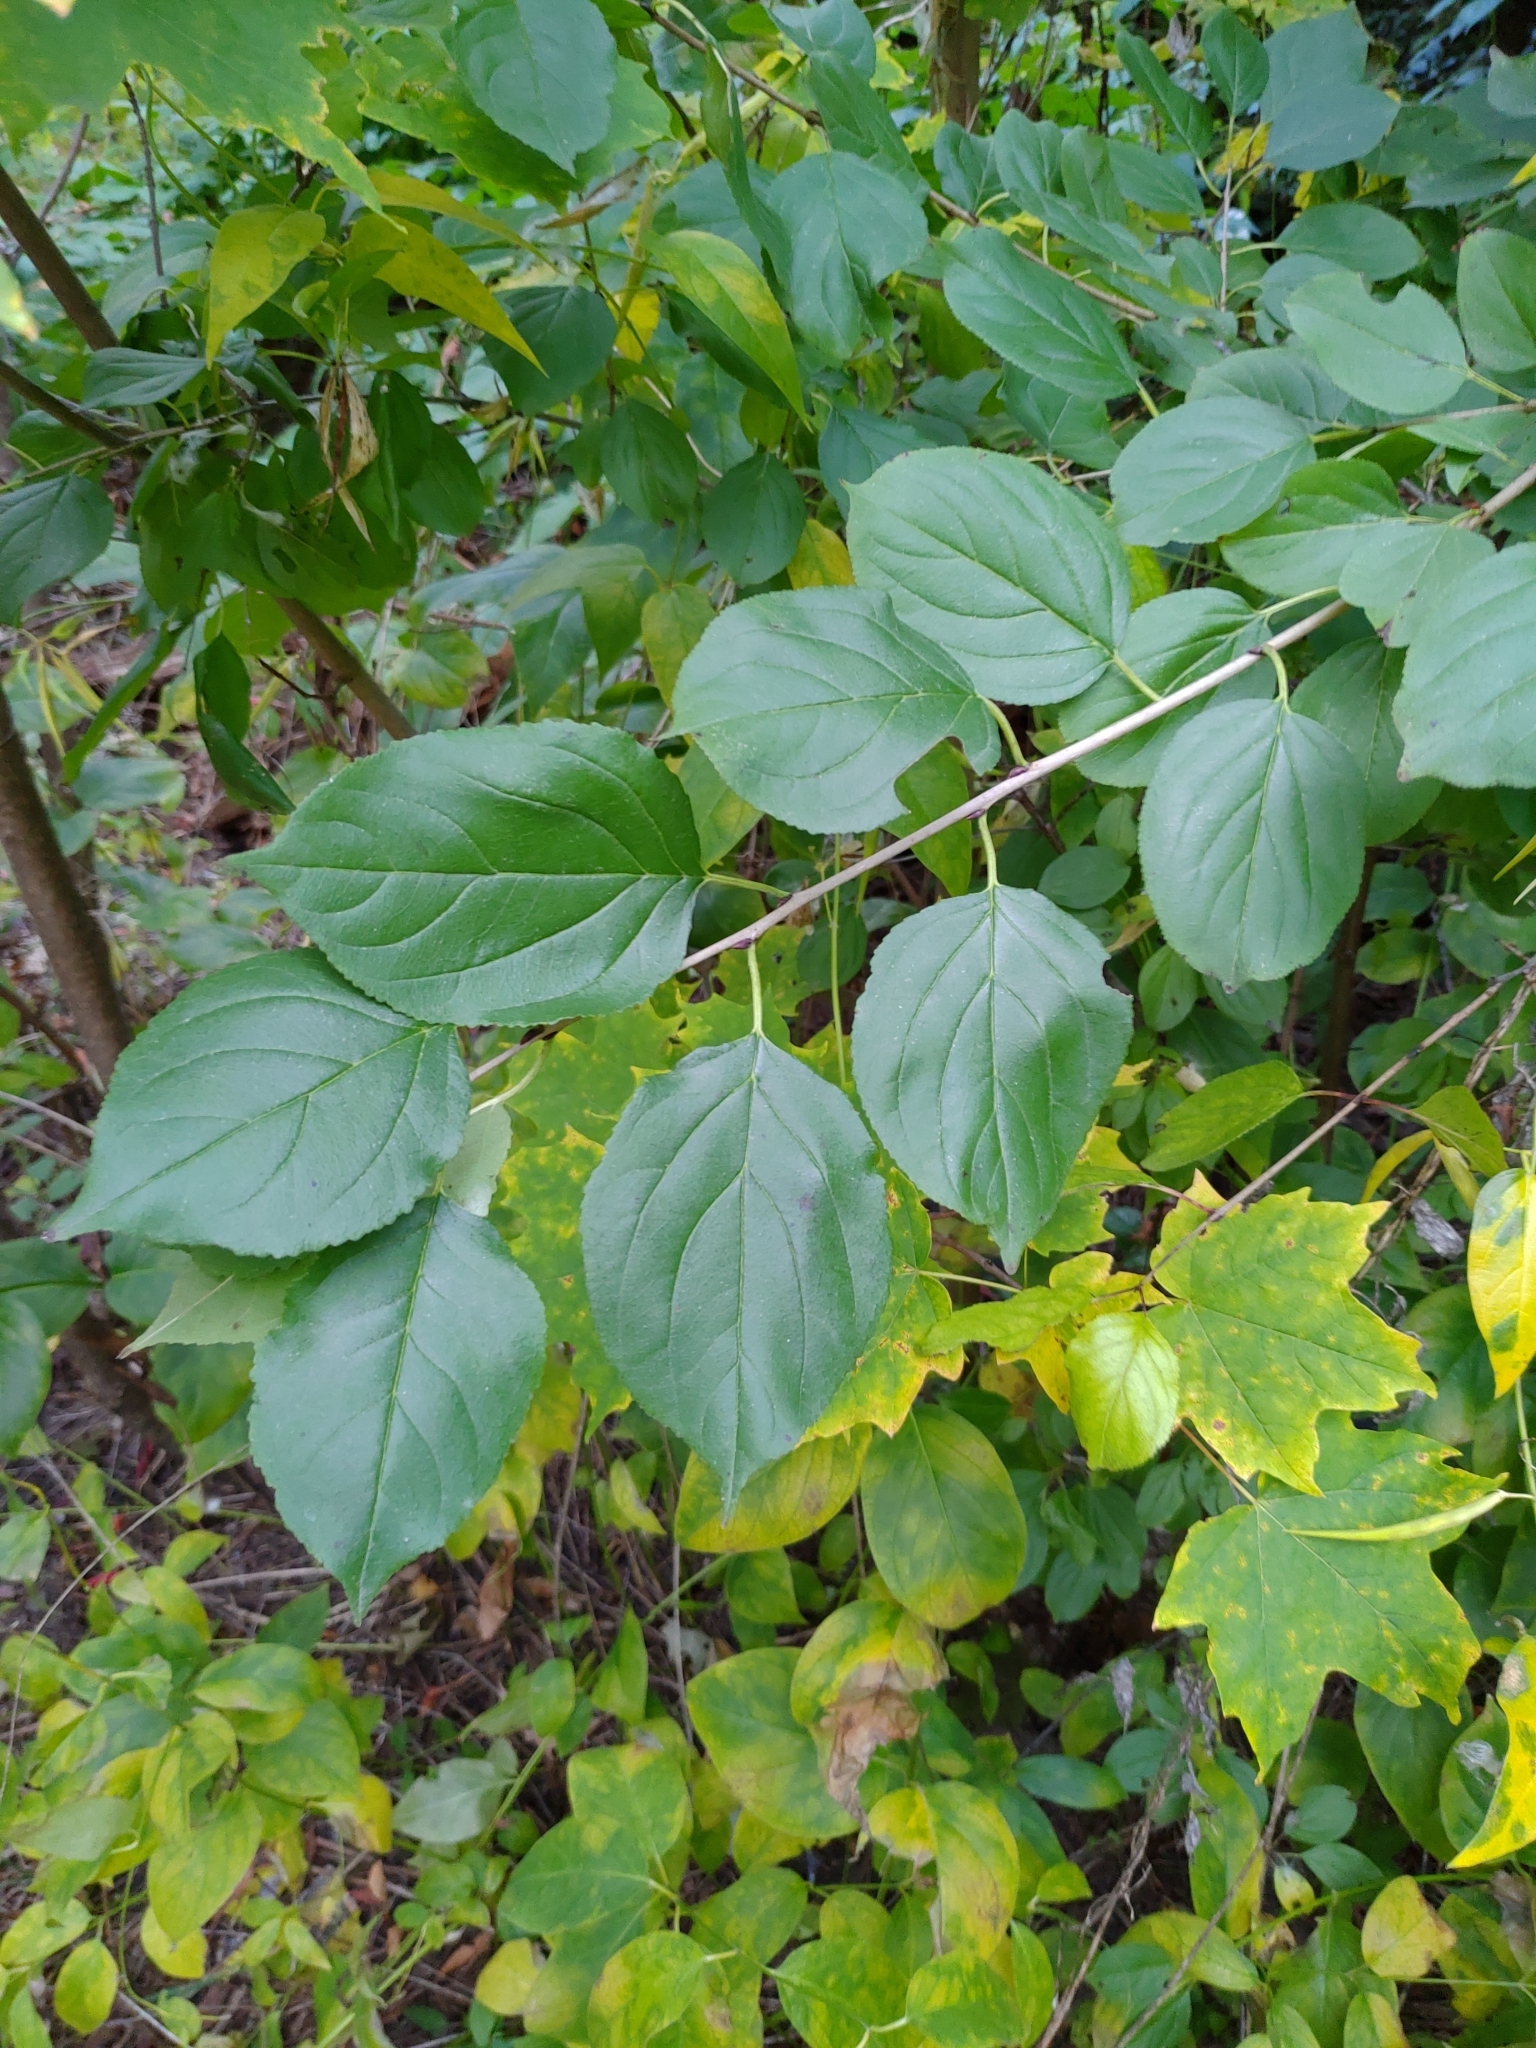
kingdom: Plantae
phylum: Tracheophyta
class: Magnoliopsida
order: Rosales
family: Rhamnaceae
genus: Rhamnus
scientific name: Rhamnus cathartica
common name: Common buckthorn
